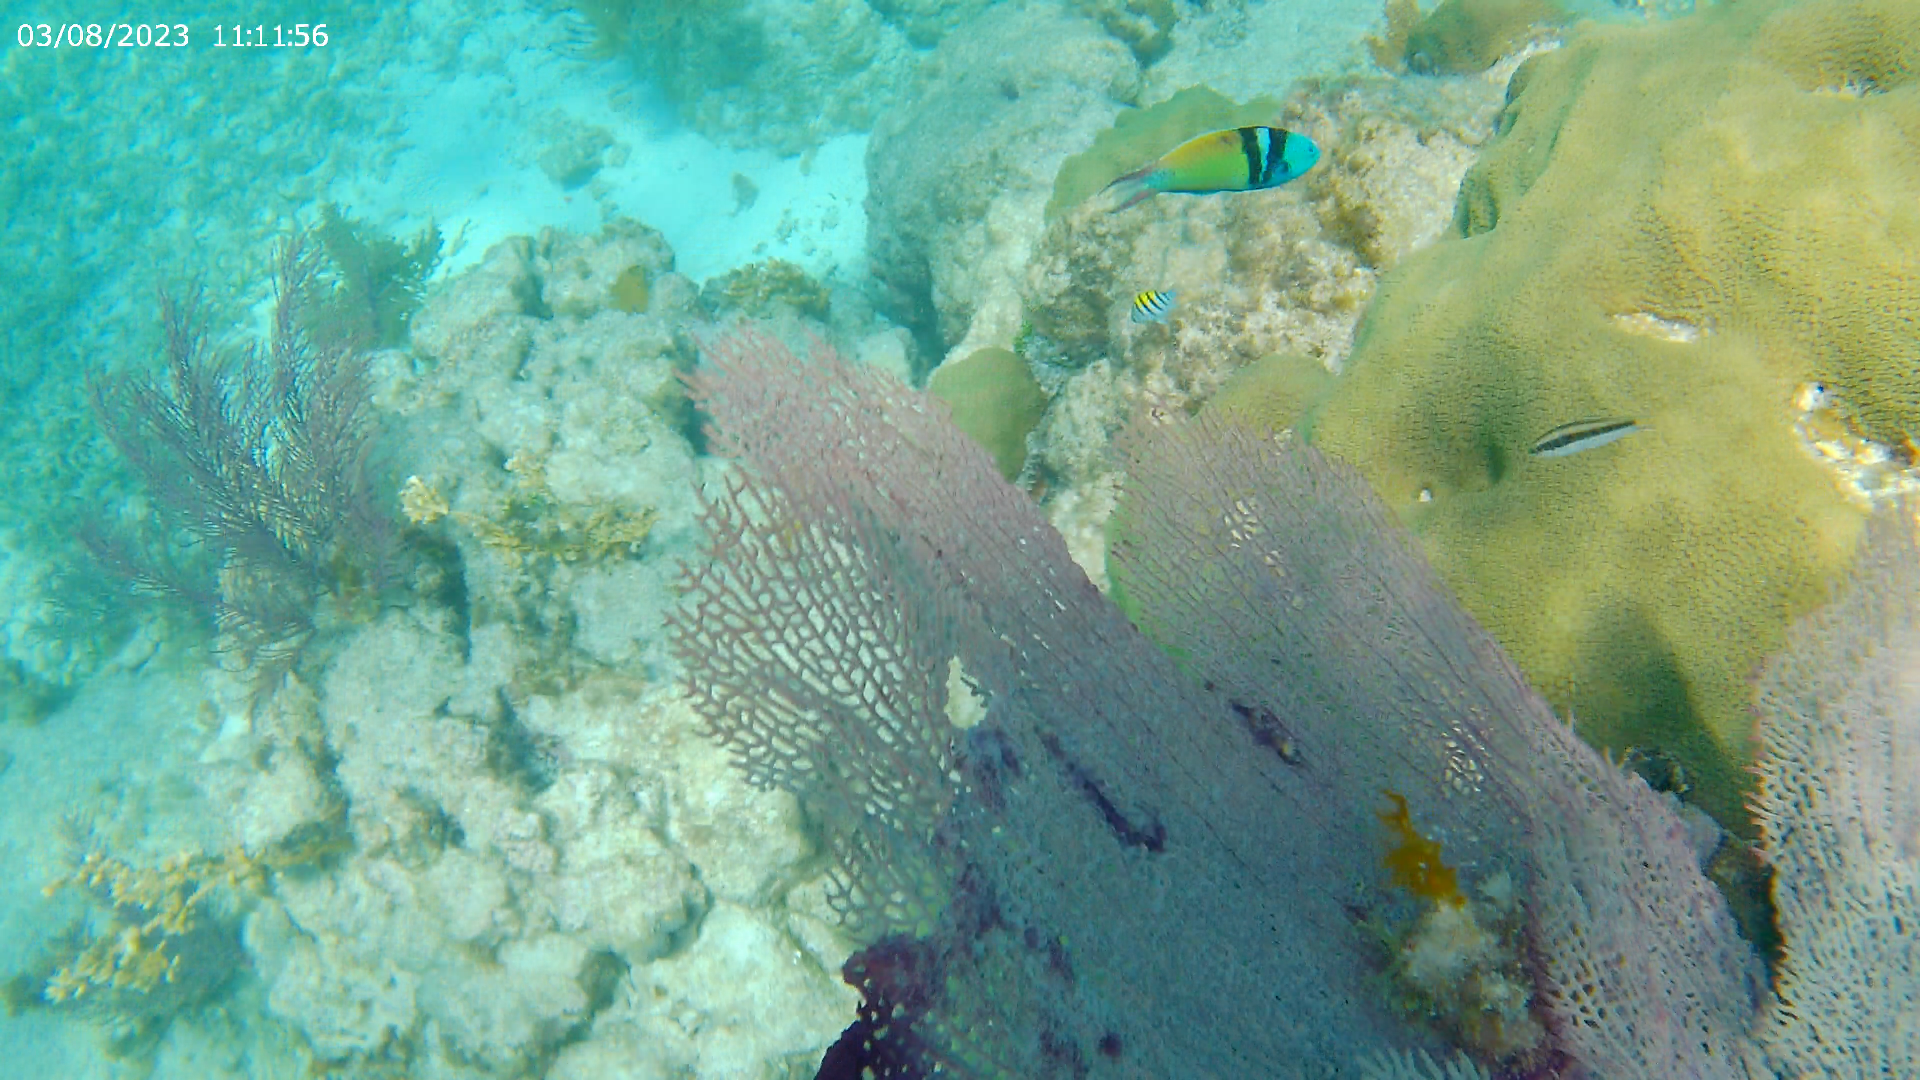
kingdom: Animalia
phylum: Chordata
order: Perciformes
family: Labridae
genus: Halichoeres
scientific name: Halichoeres bivittatus
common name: Slippery dick
